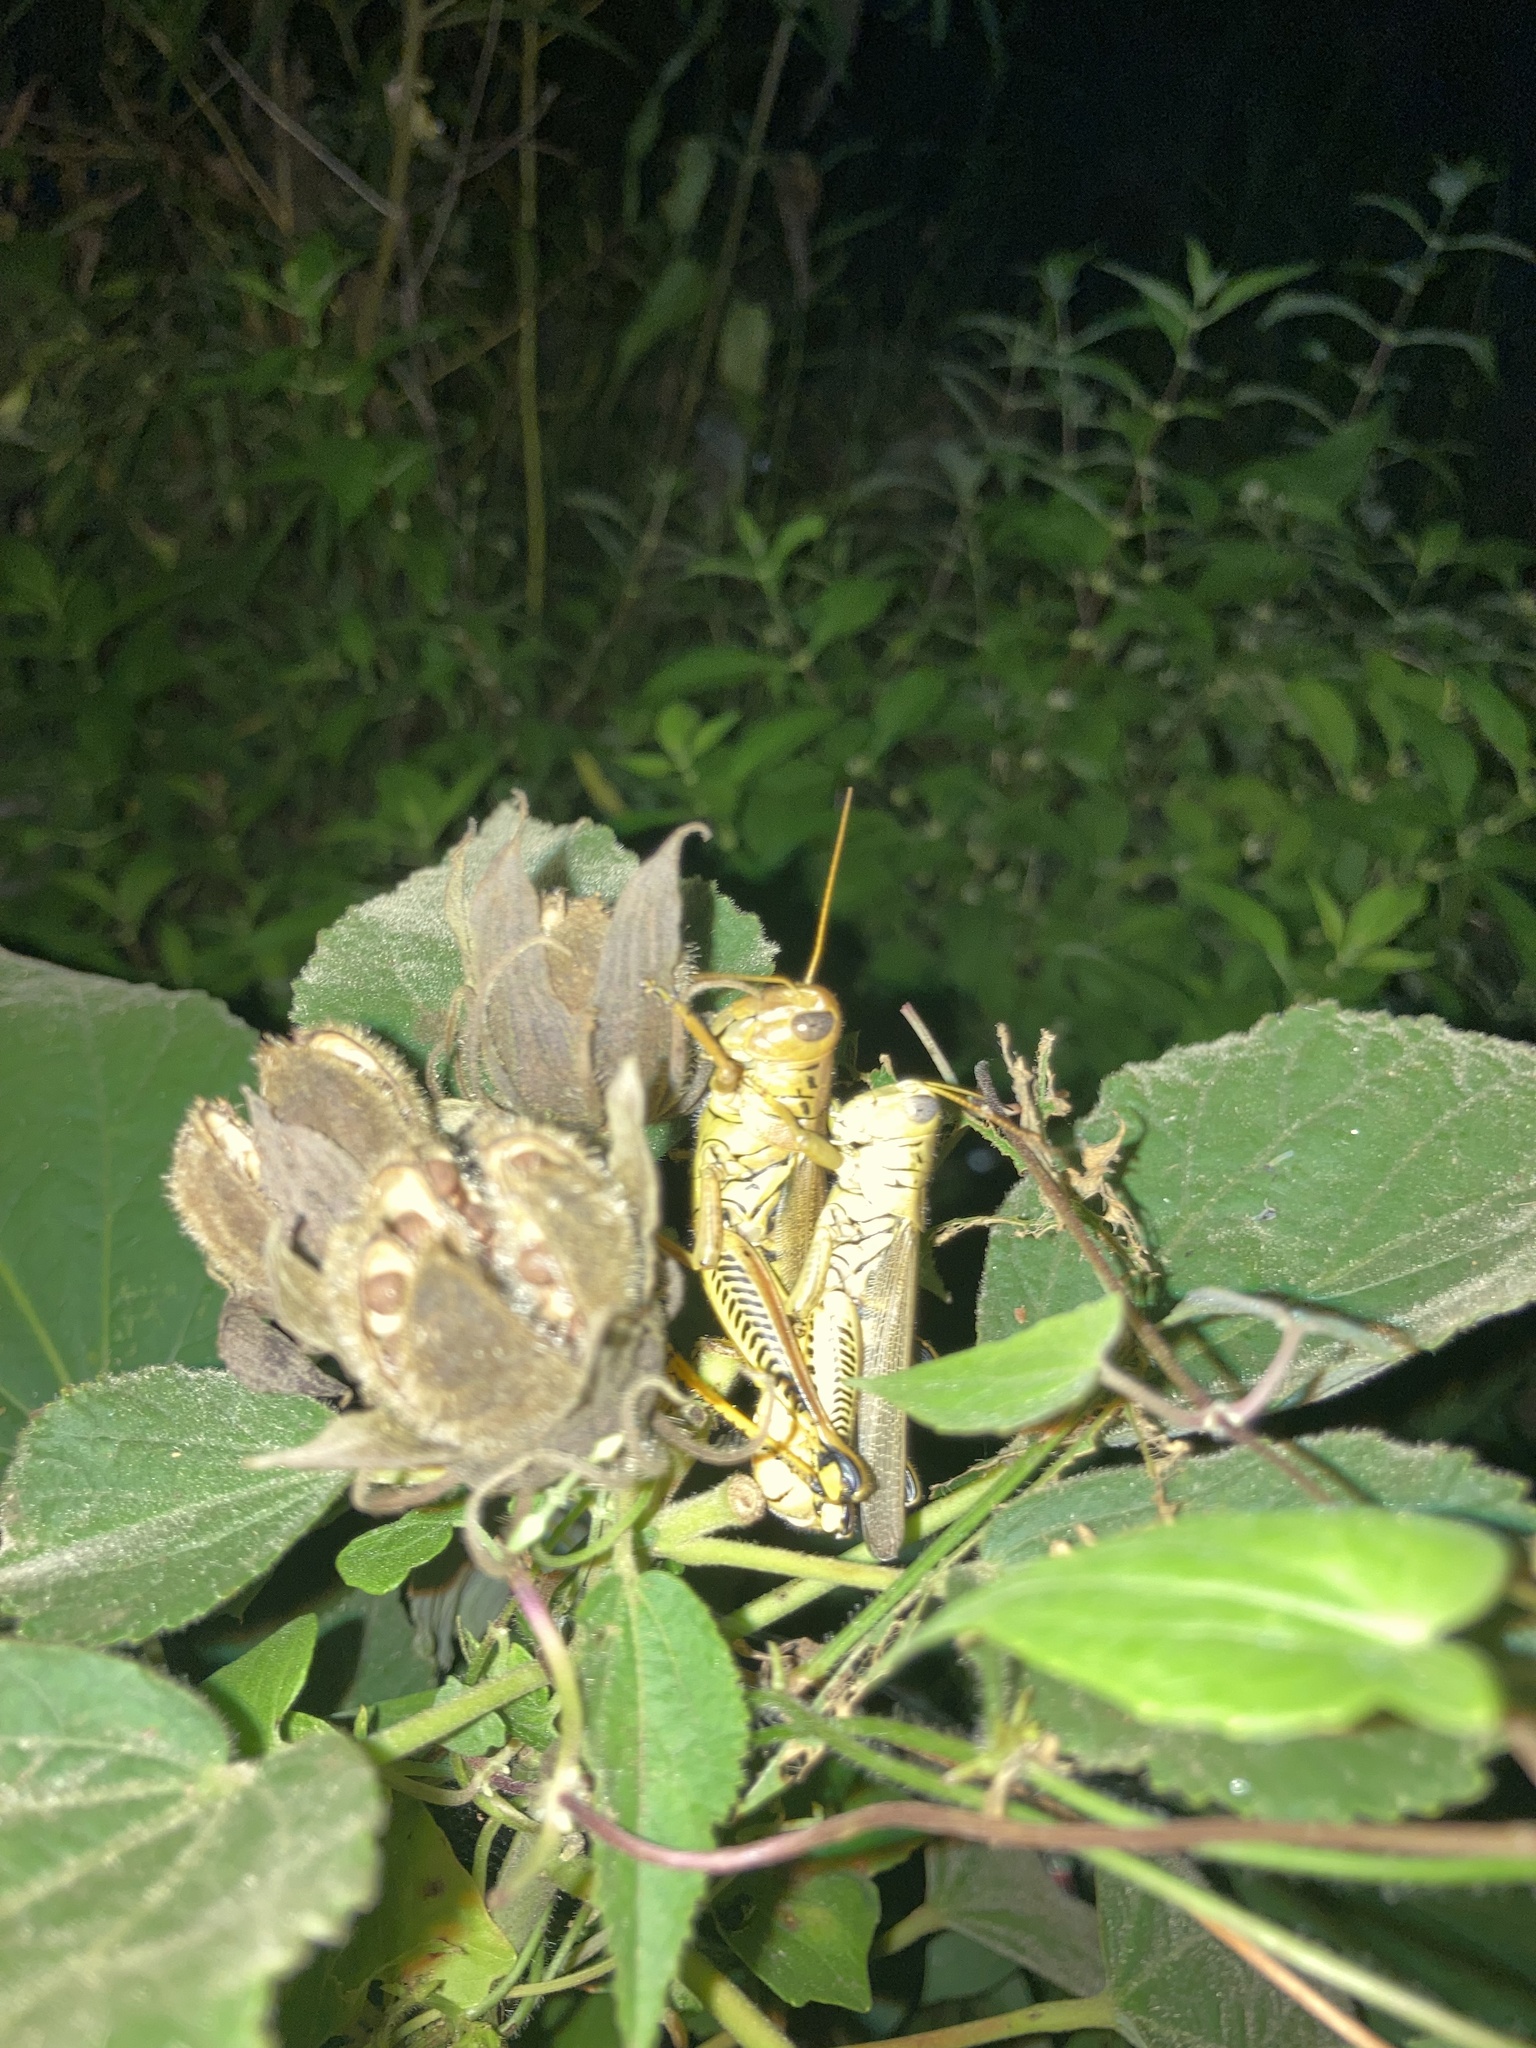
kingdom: Animalia
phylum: Arthropoda
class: Insecta
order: Orthoptera
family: Acrididae
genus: Melanoplus
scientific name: Melanoplus differentialis
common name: Differential grasshopper
